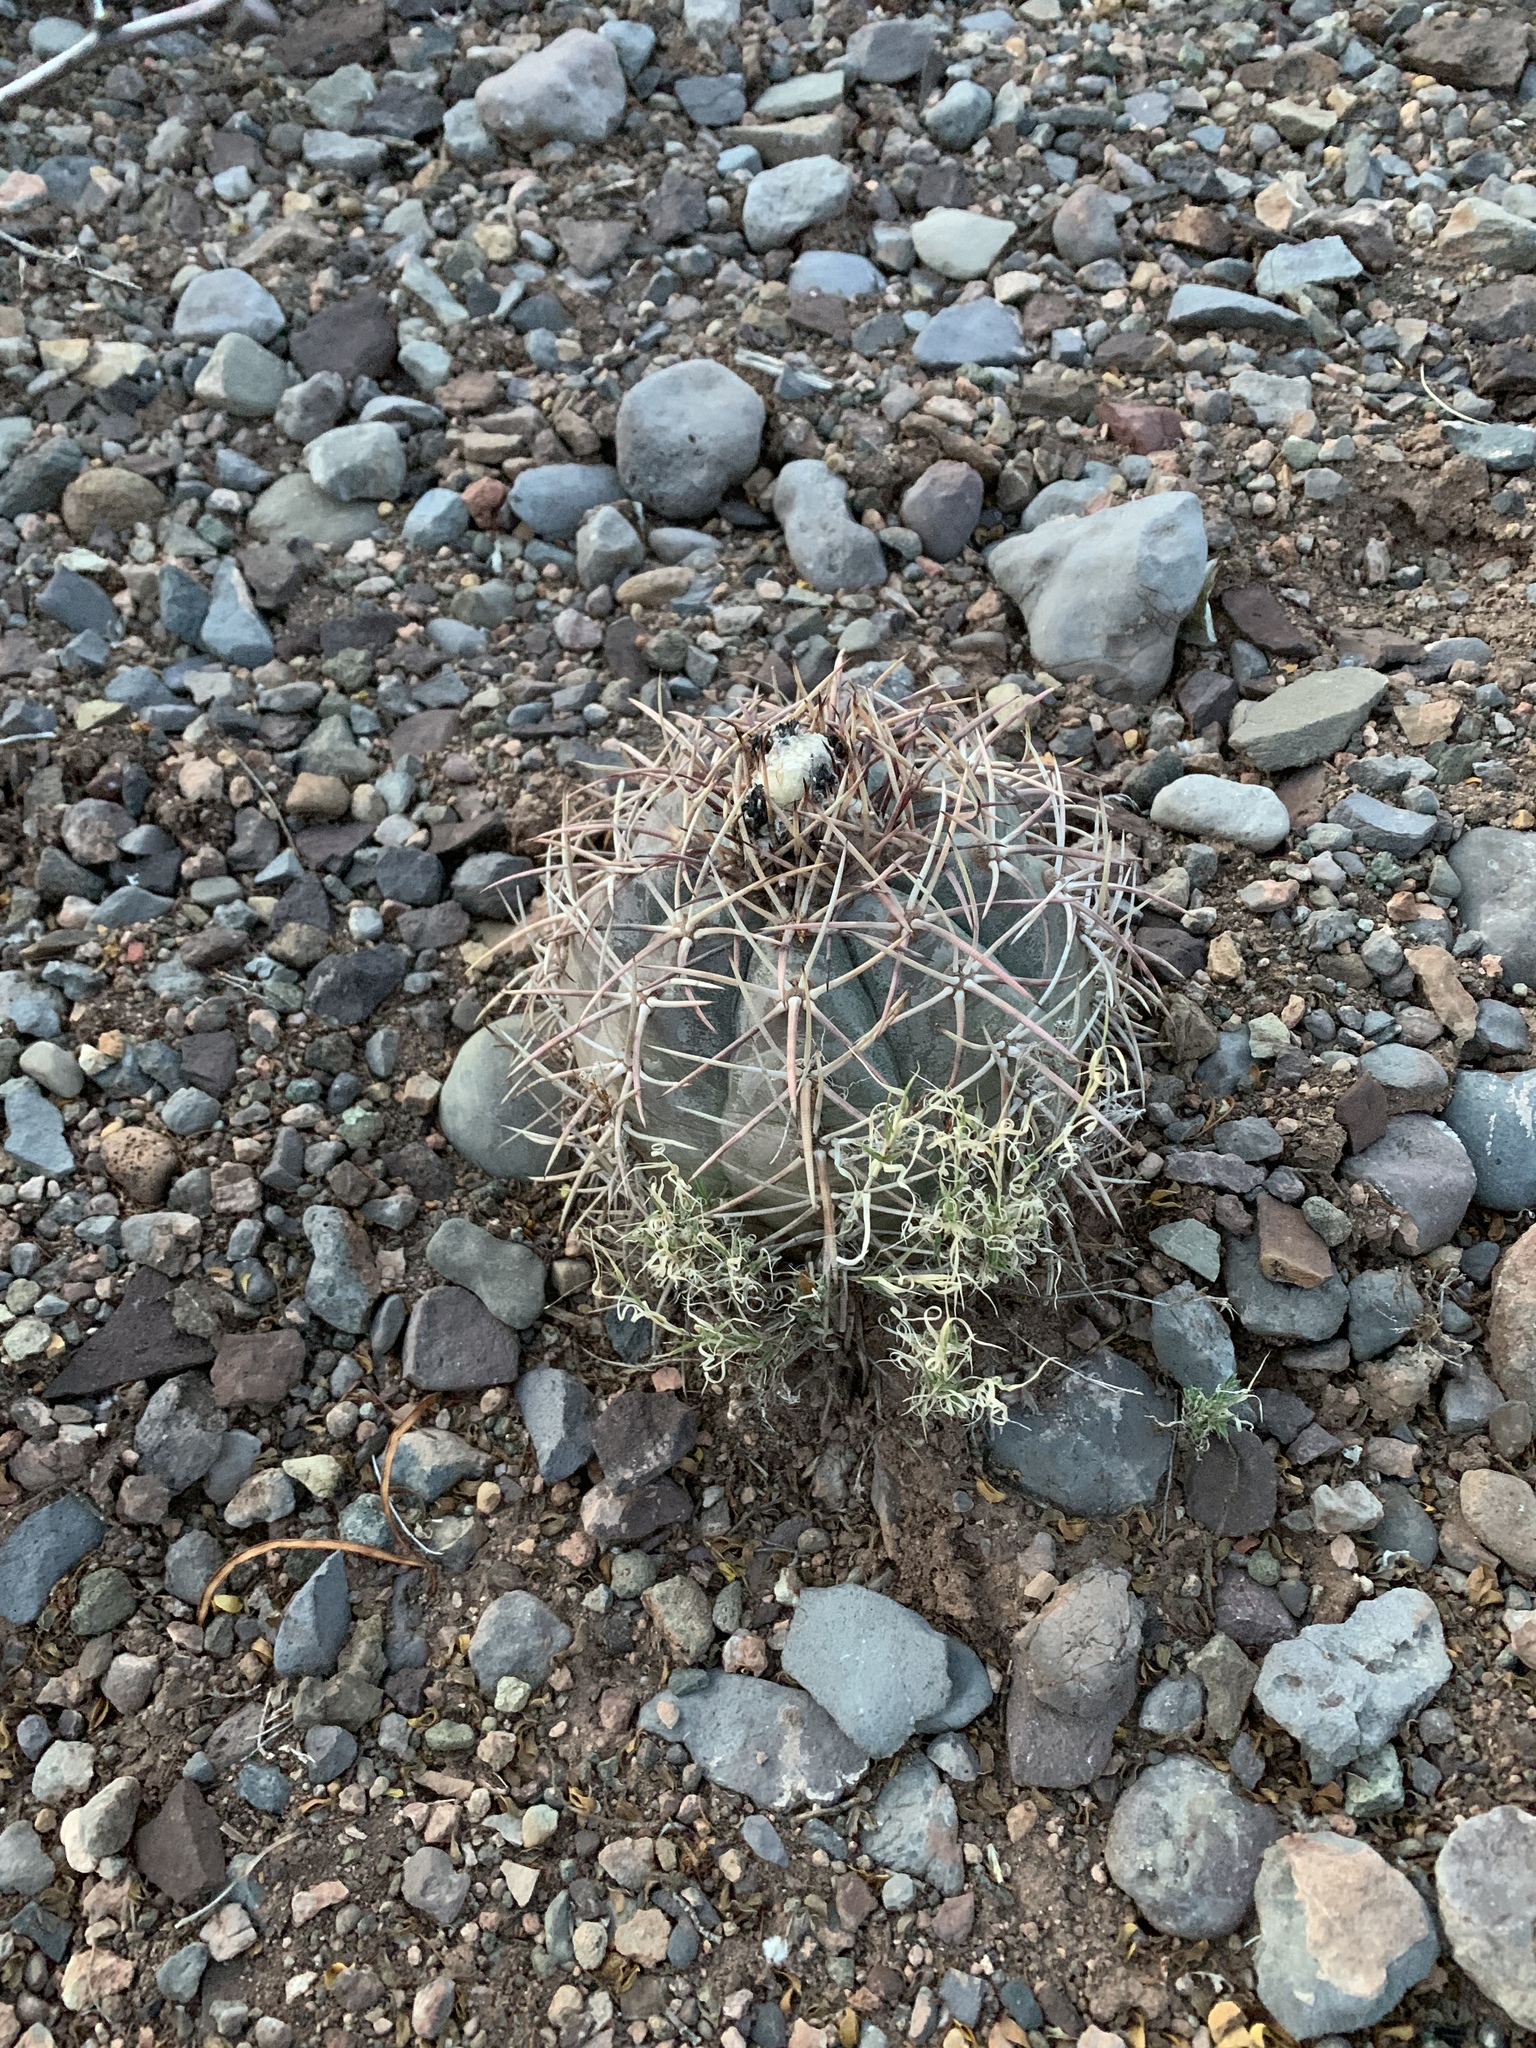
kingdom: Plantae
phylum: Tracheophyta
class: Magnoliopsida
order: Caryophyllales
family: Cactaceae
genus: Echinocactus
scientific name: Echinocactus horizonthalonius
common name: Devilshead
